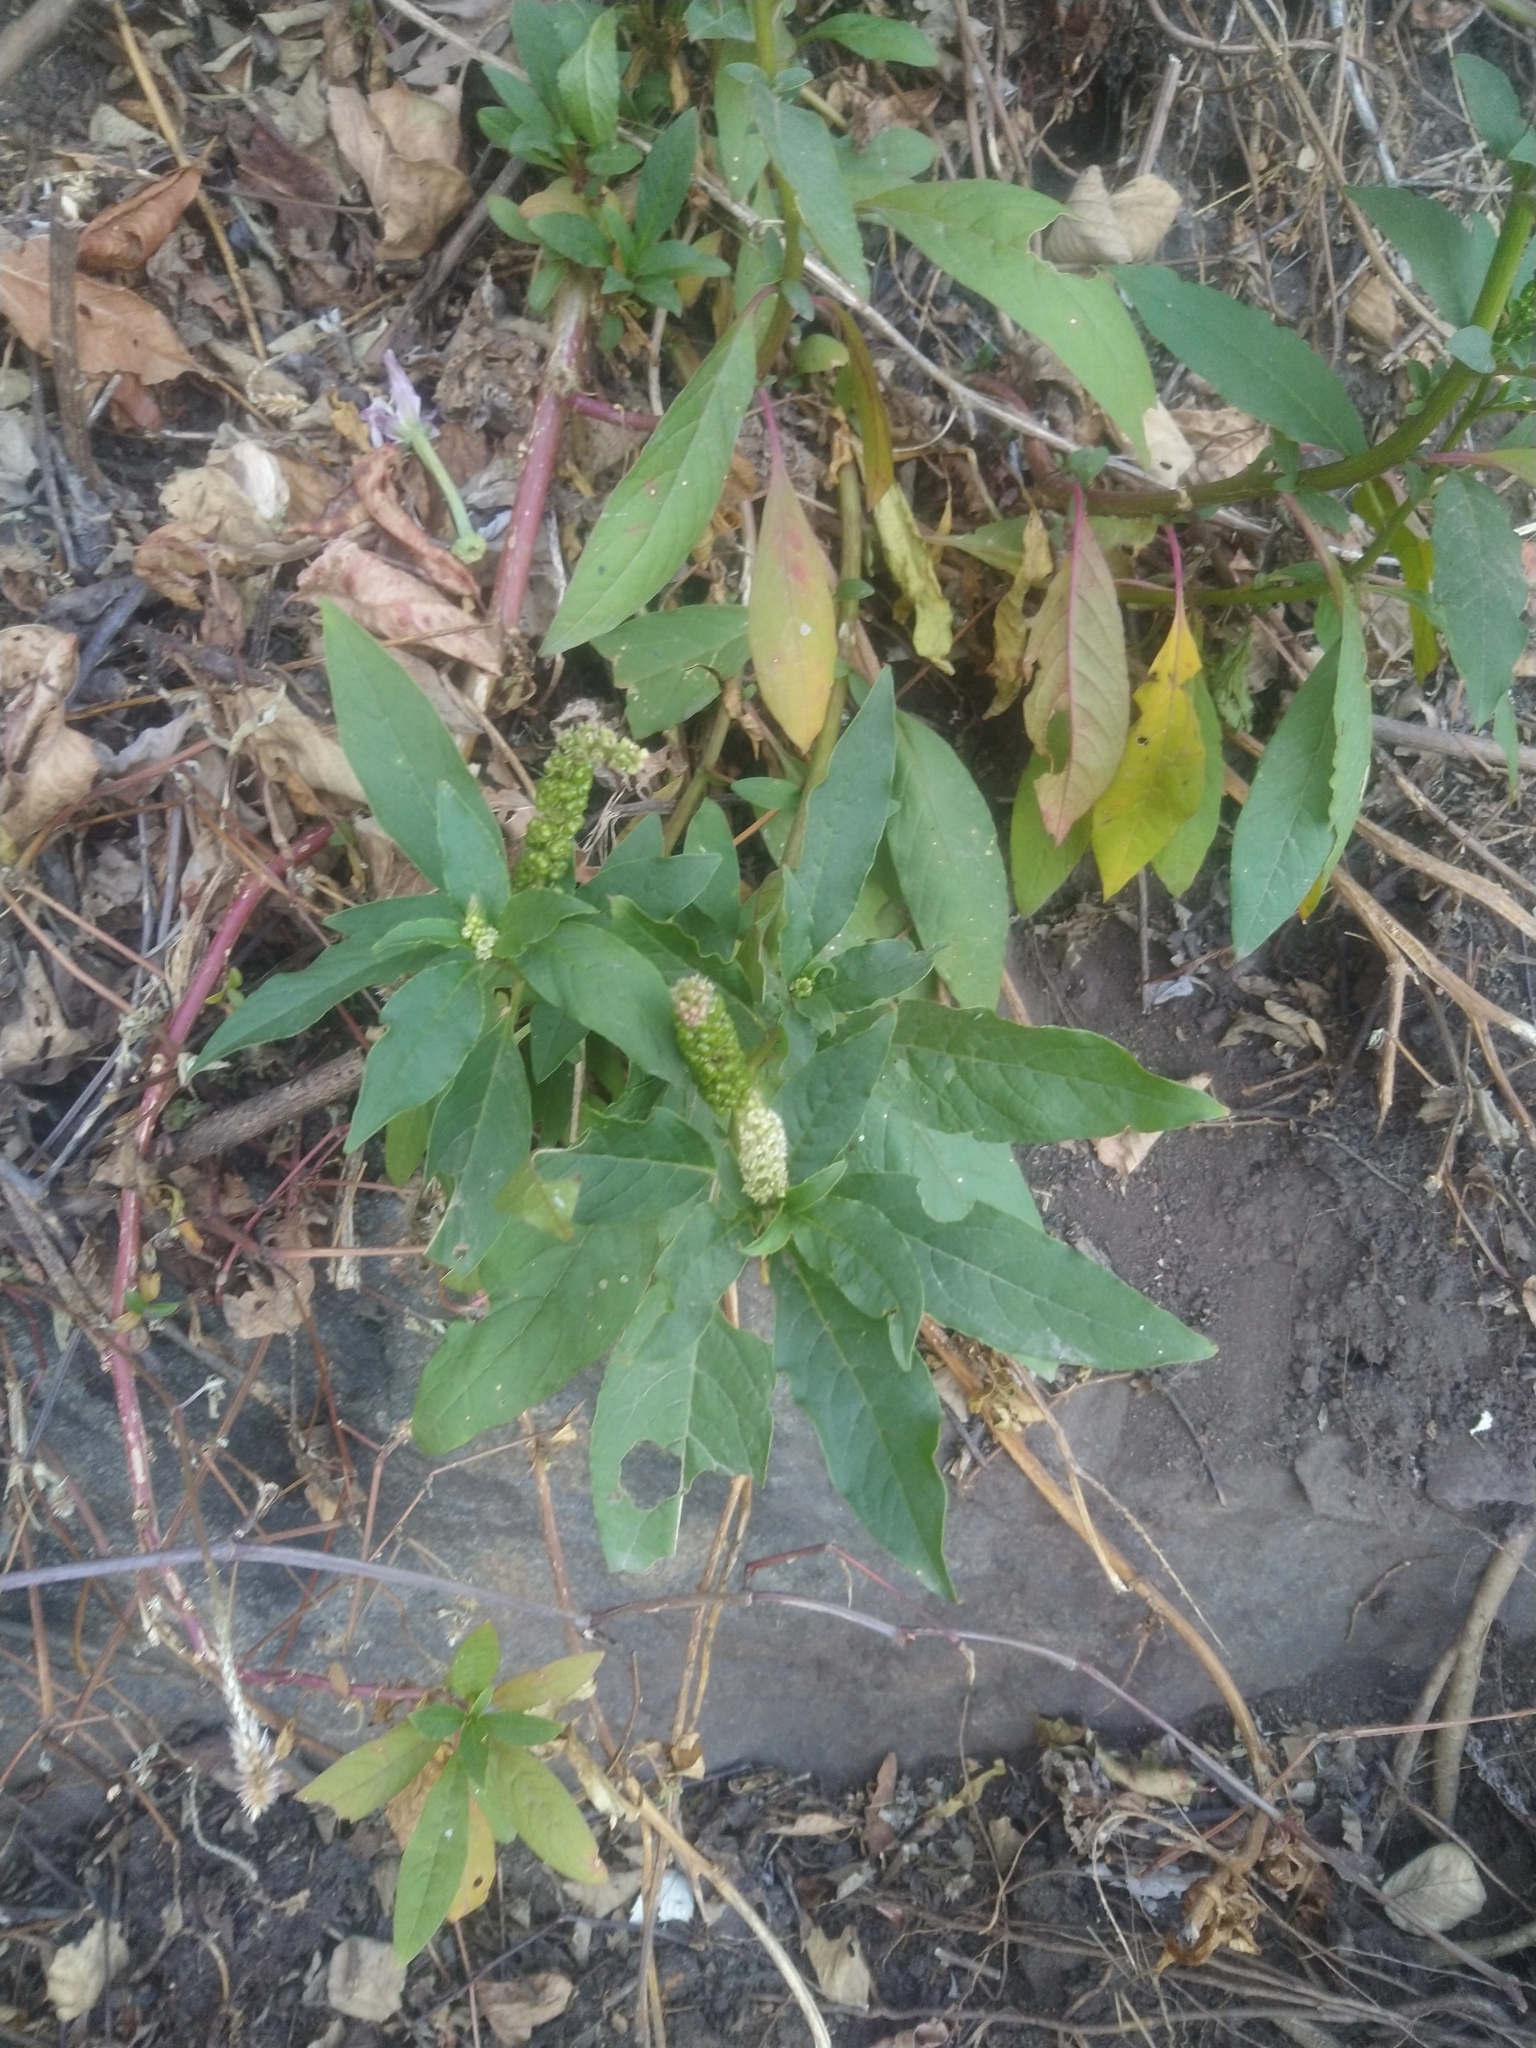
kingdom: Plantae
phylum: Tracheophyta
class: Magnoliopsida
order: Caryophyllales
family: Phytolaccaceae
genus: Phytolacca
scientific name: Phytolacca icosandra
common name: Button pokeweed
